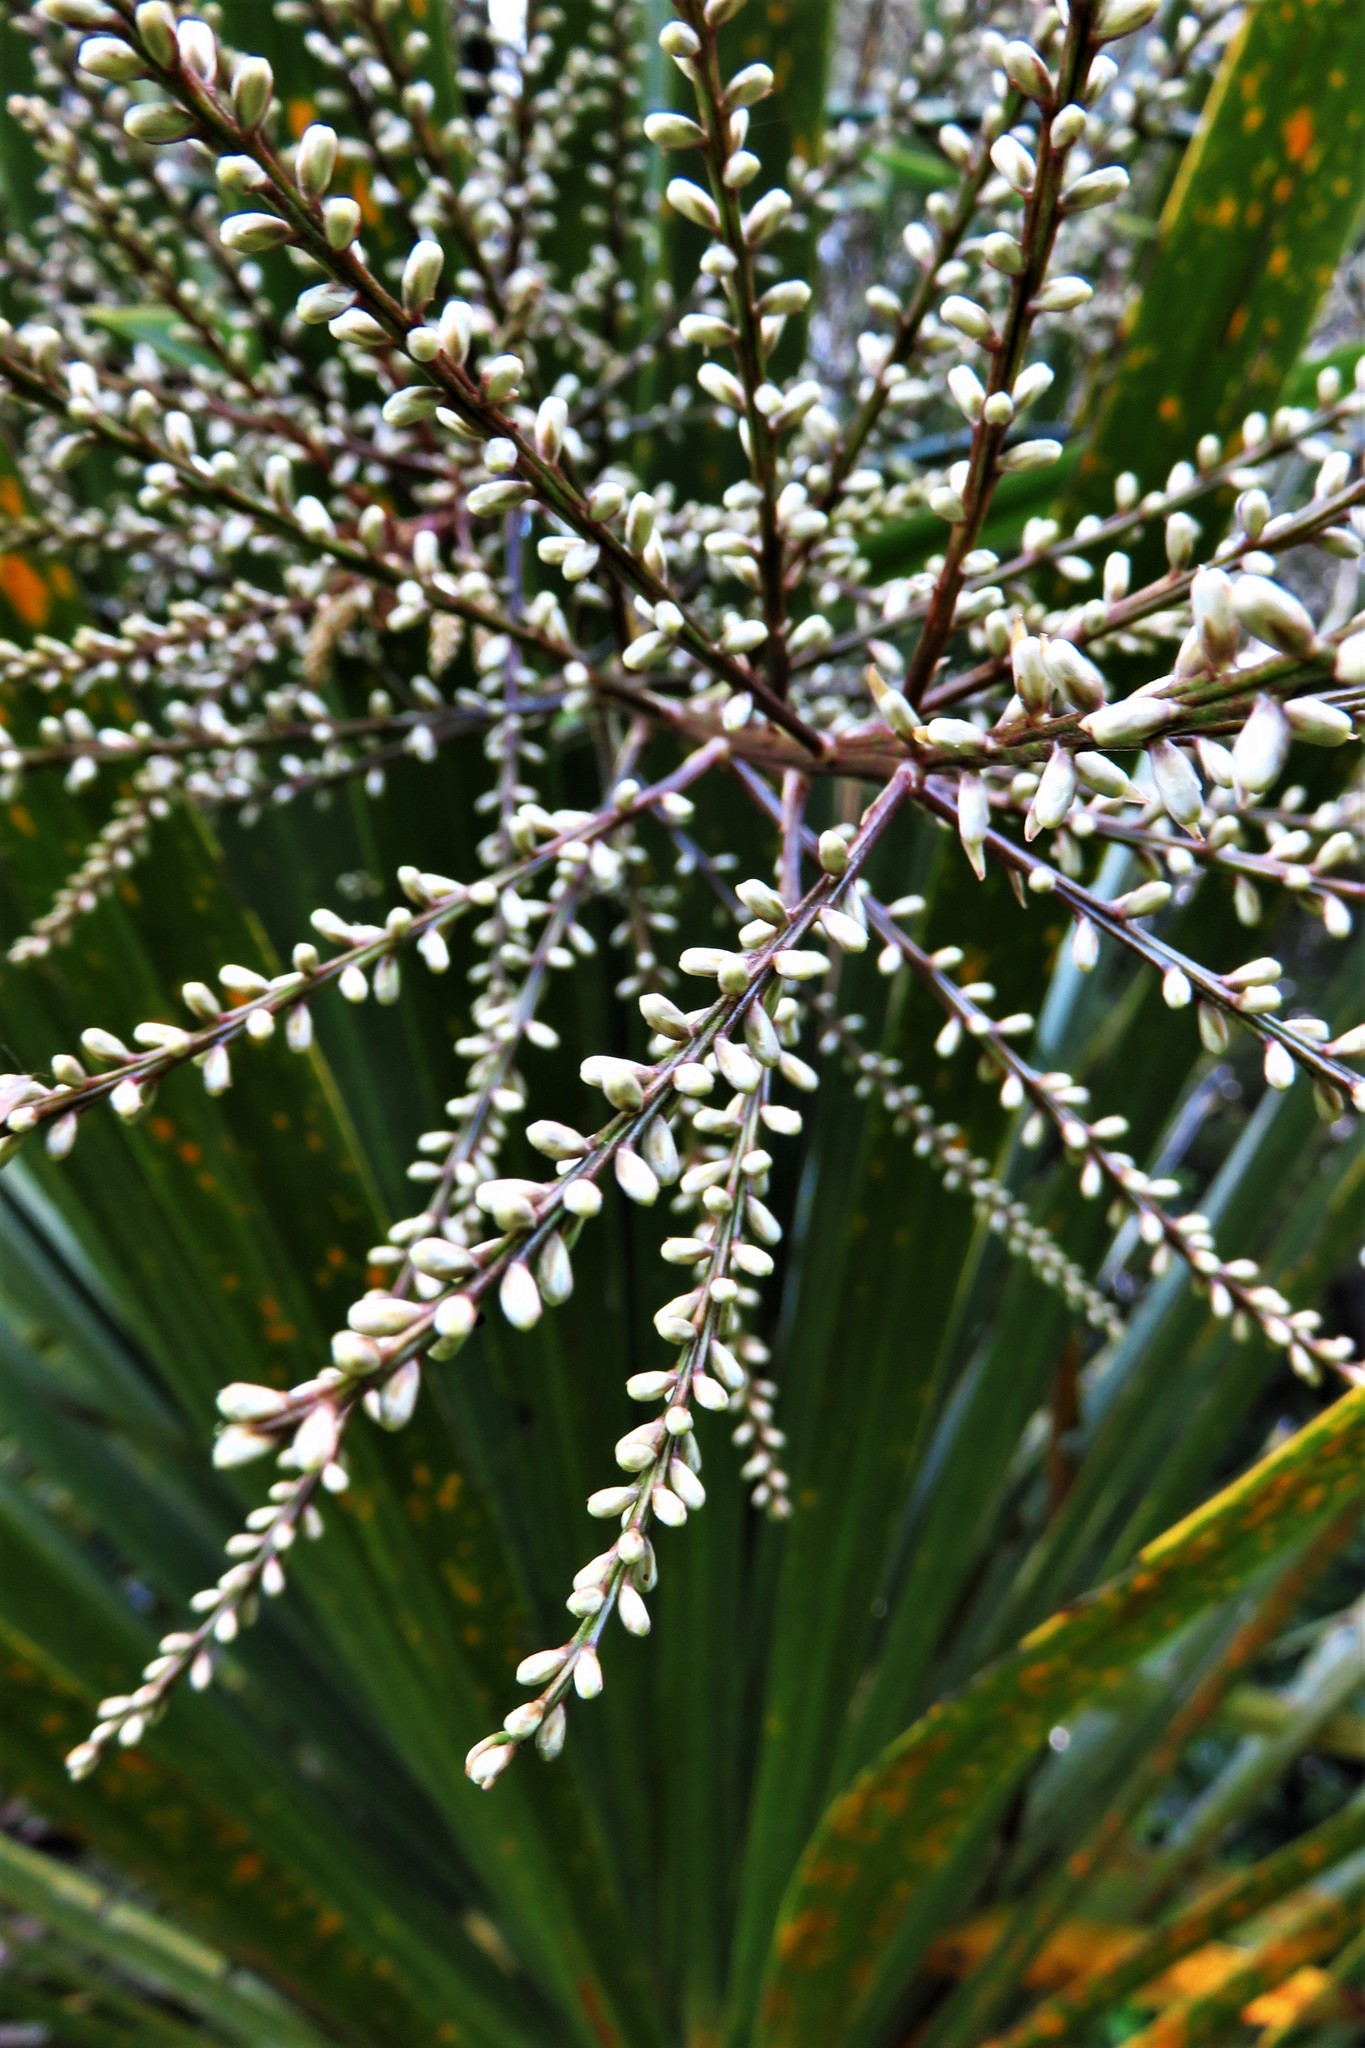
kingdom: Plantae
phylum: Tracheophyta
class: Liliopsida
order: Asparagales
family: Asparagaceae
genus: Cordyline
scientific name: Cordyline australis
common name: Cabbage-palm
